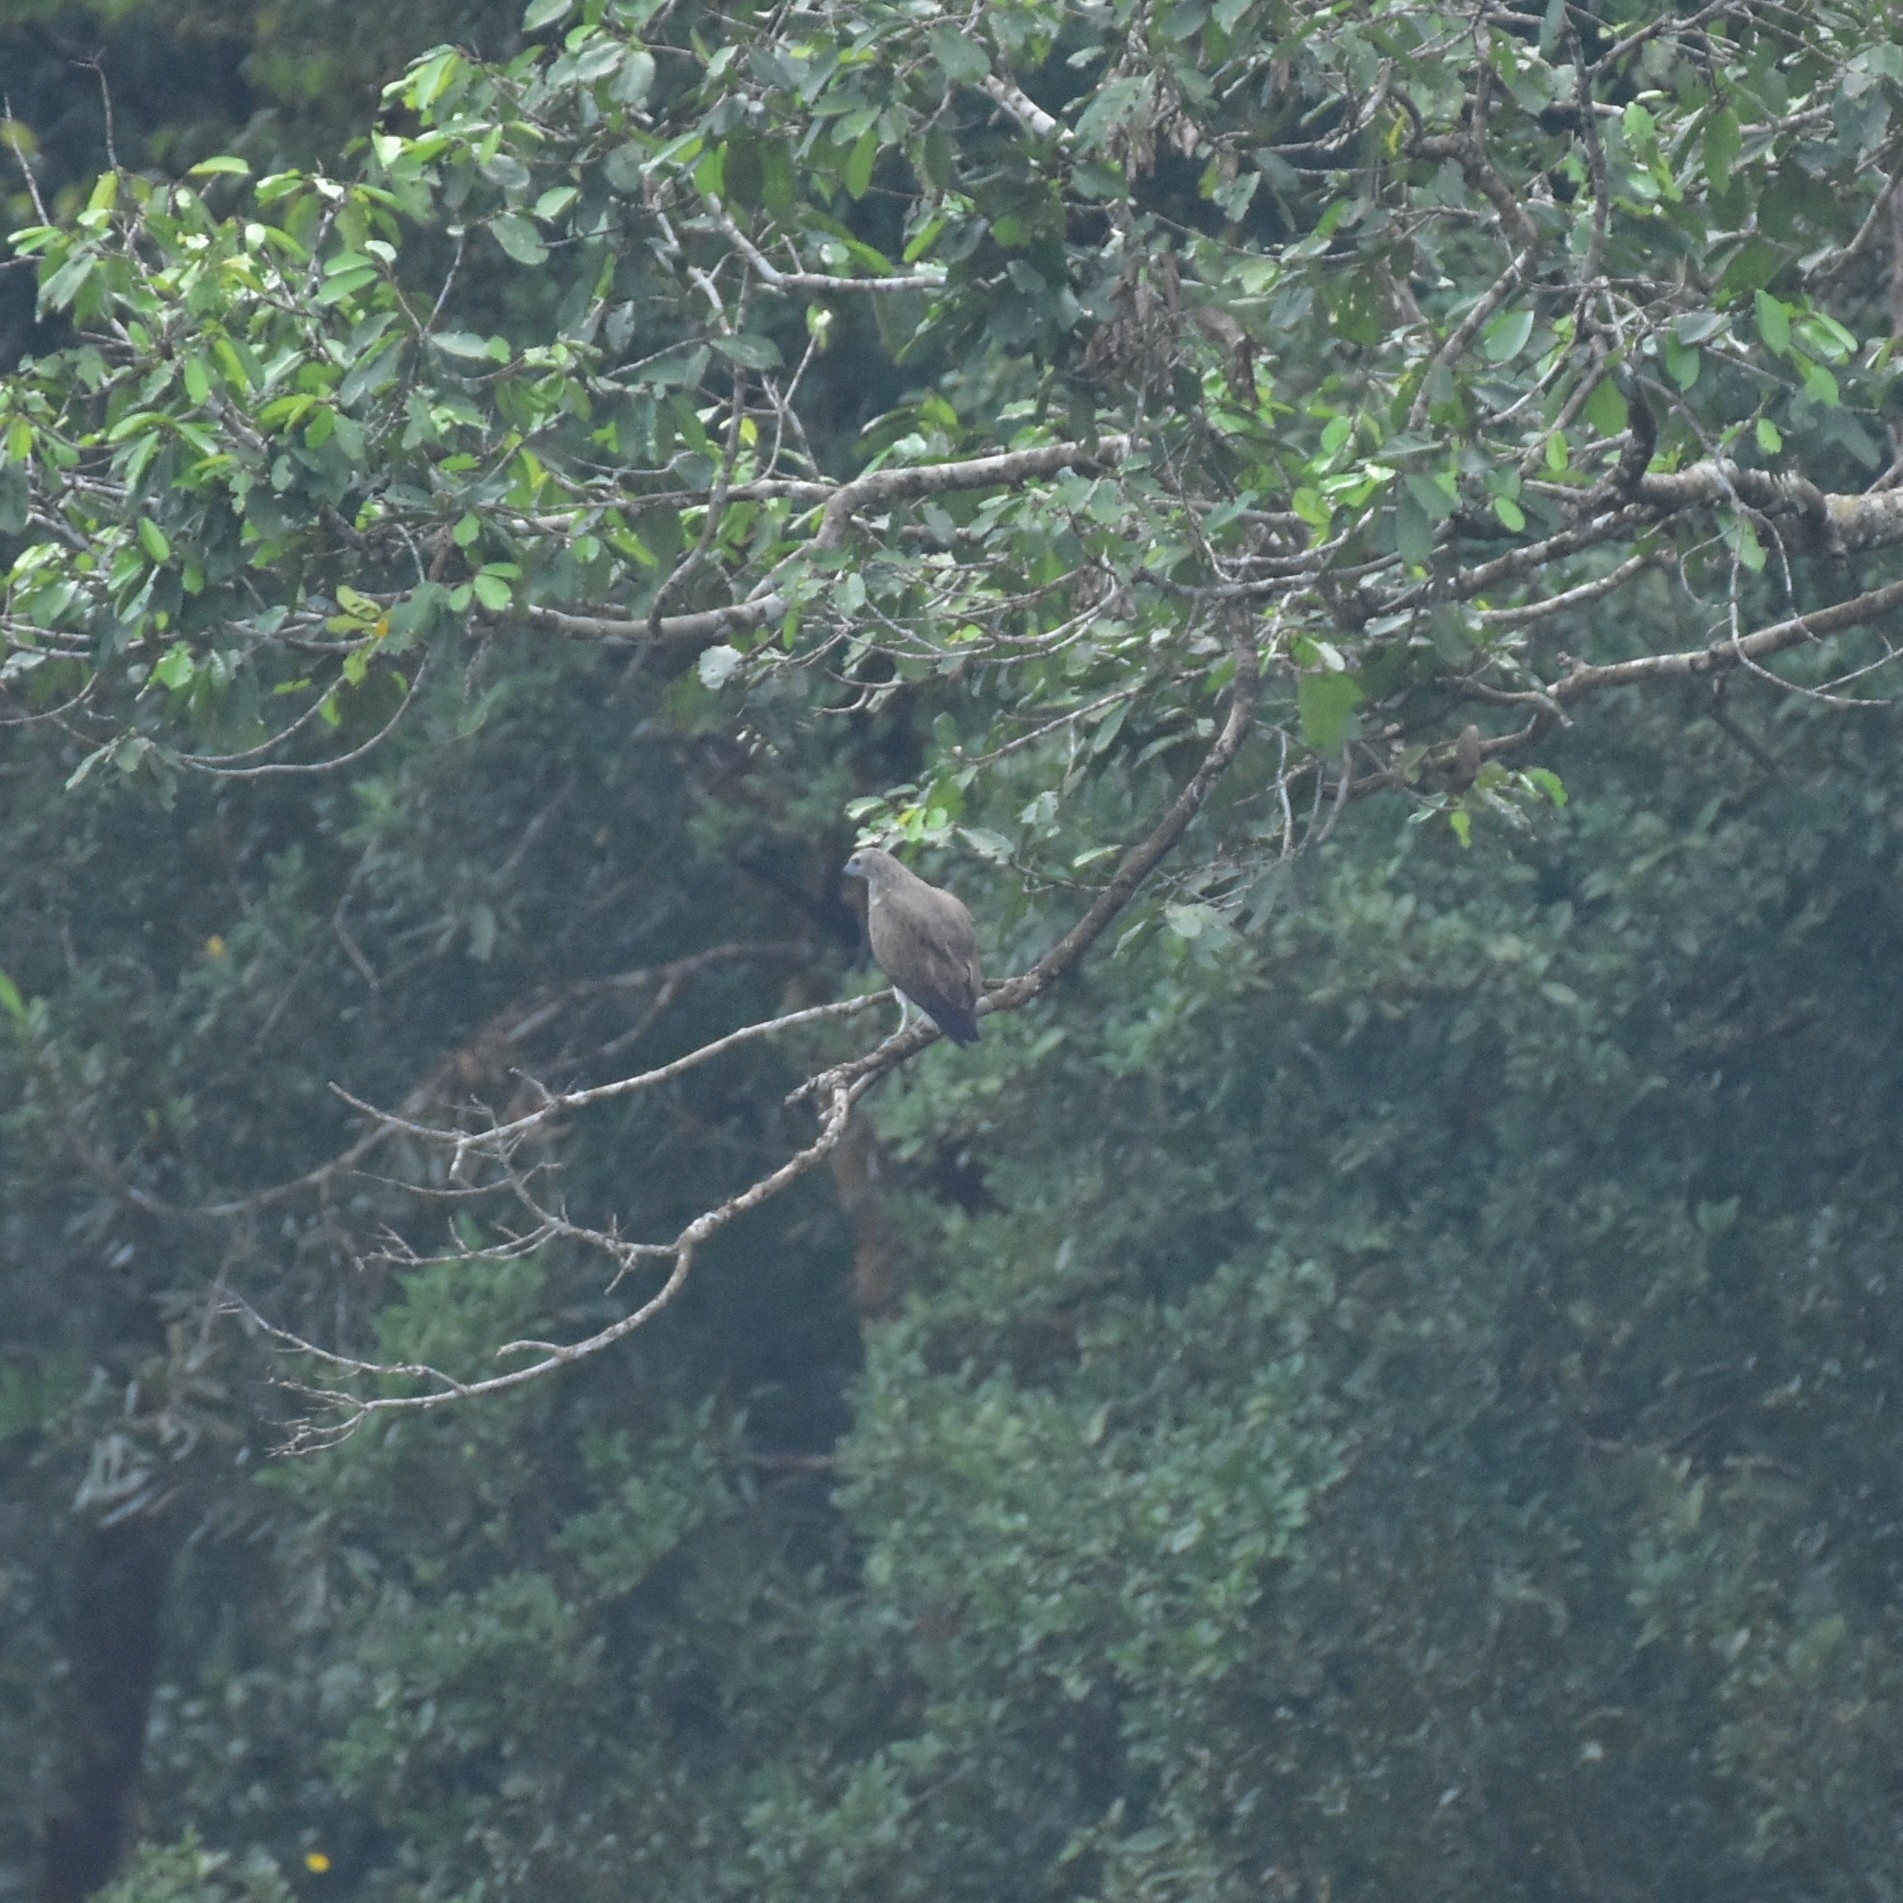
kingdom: Animalia
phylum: Chordata
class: Aves
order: Accipitriformes
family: Accipitridae
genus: Icthyophaga
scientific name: Icthyophaga humilis
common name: Lesser fish-eagle
